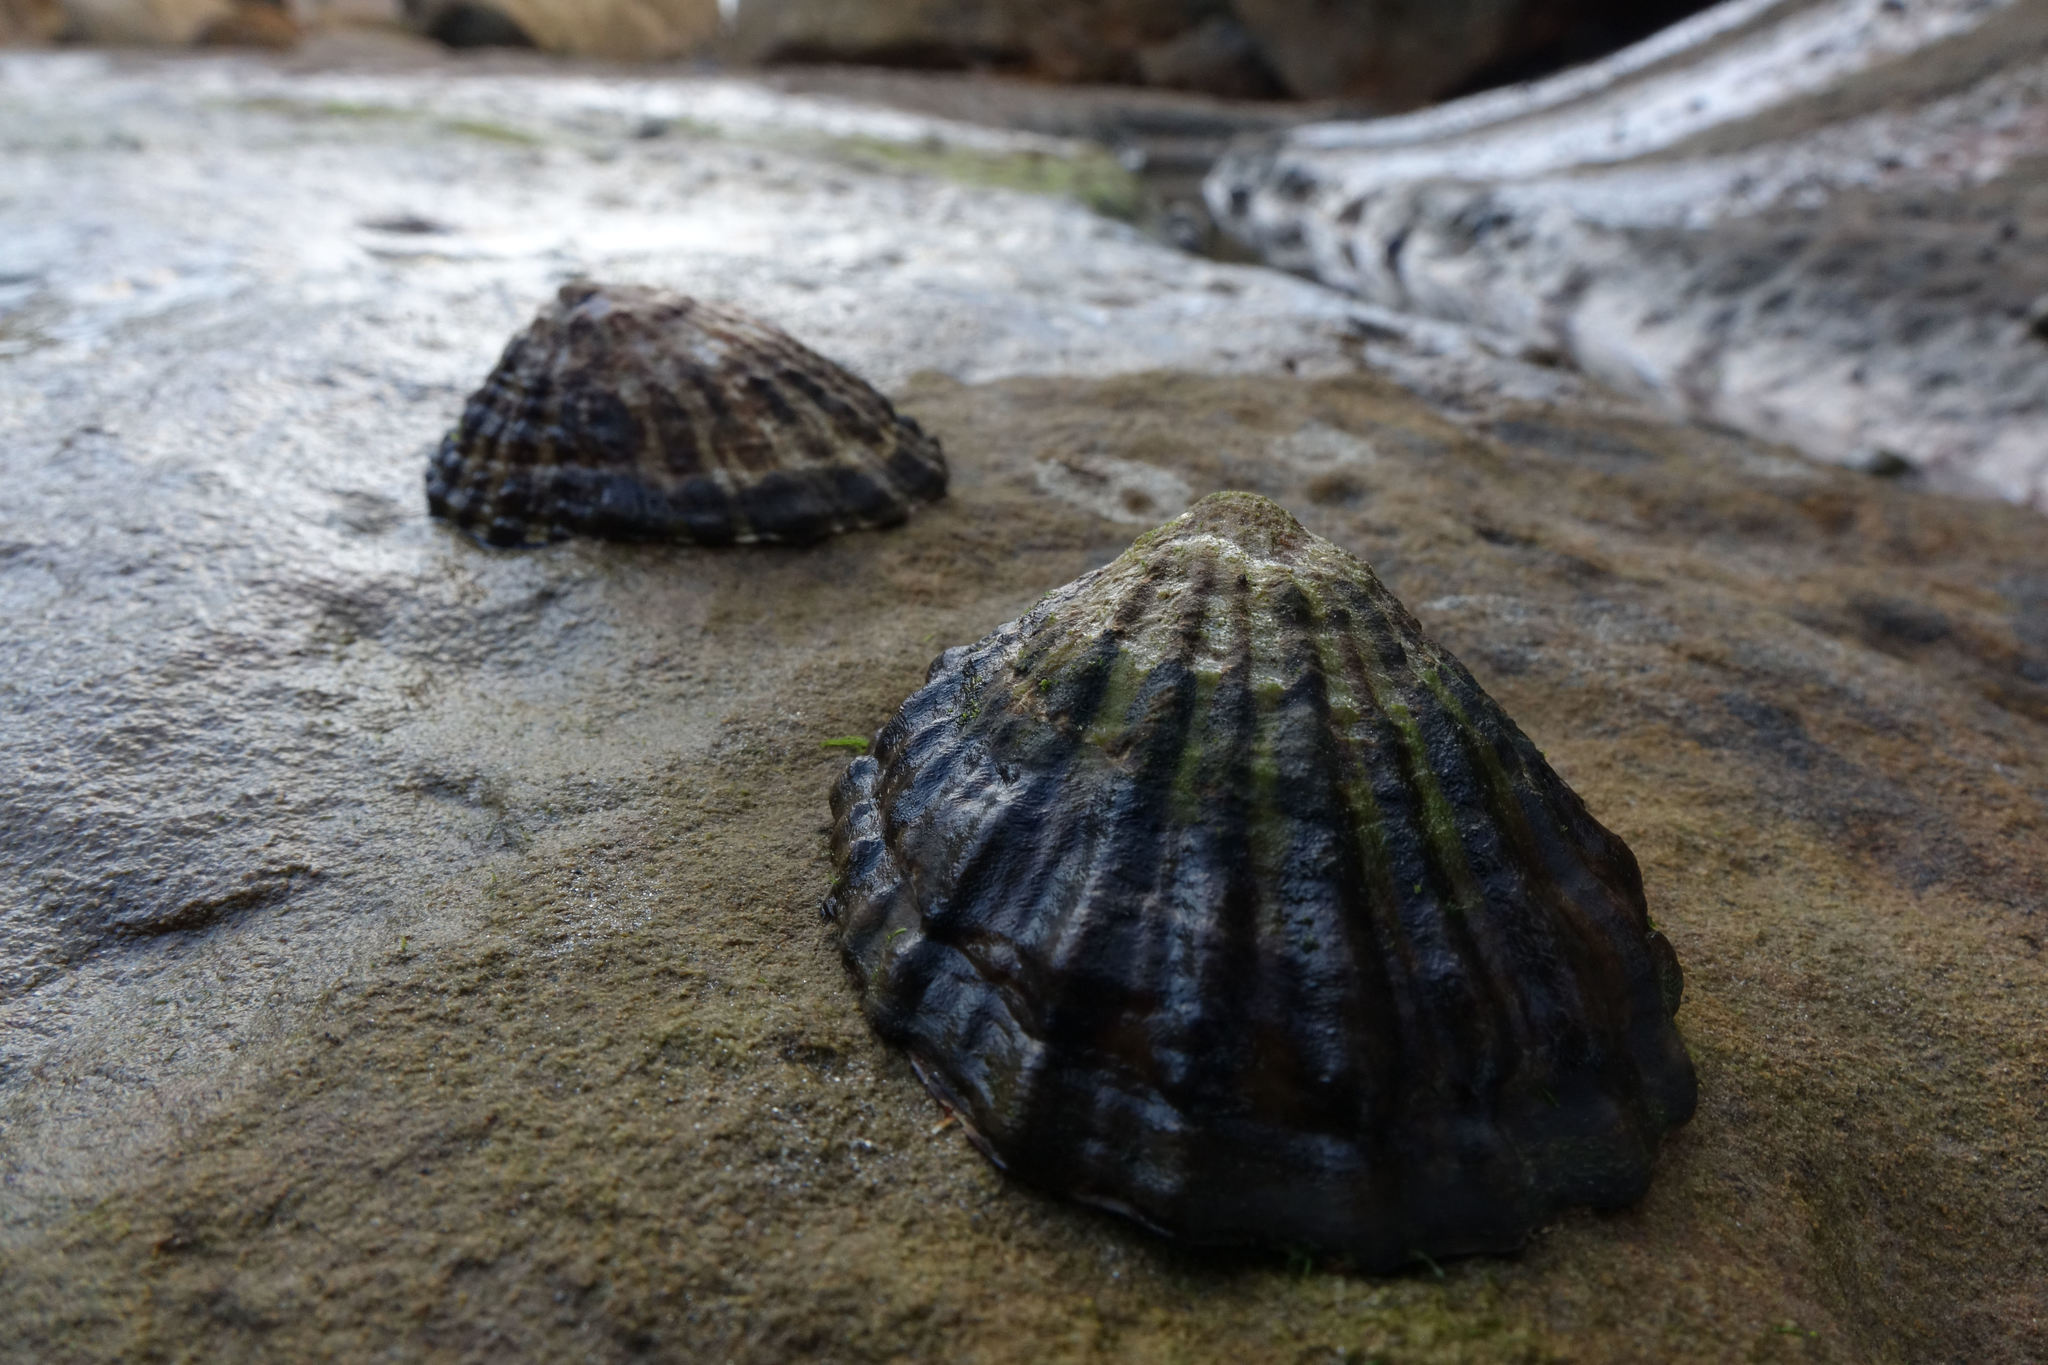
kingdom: Animalia
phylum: Mollusca
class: Gastropoda
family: Nacellidae
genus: Cellana
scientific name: Cellana strigilis
